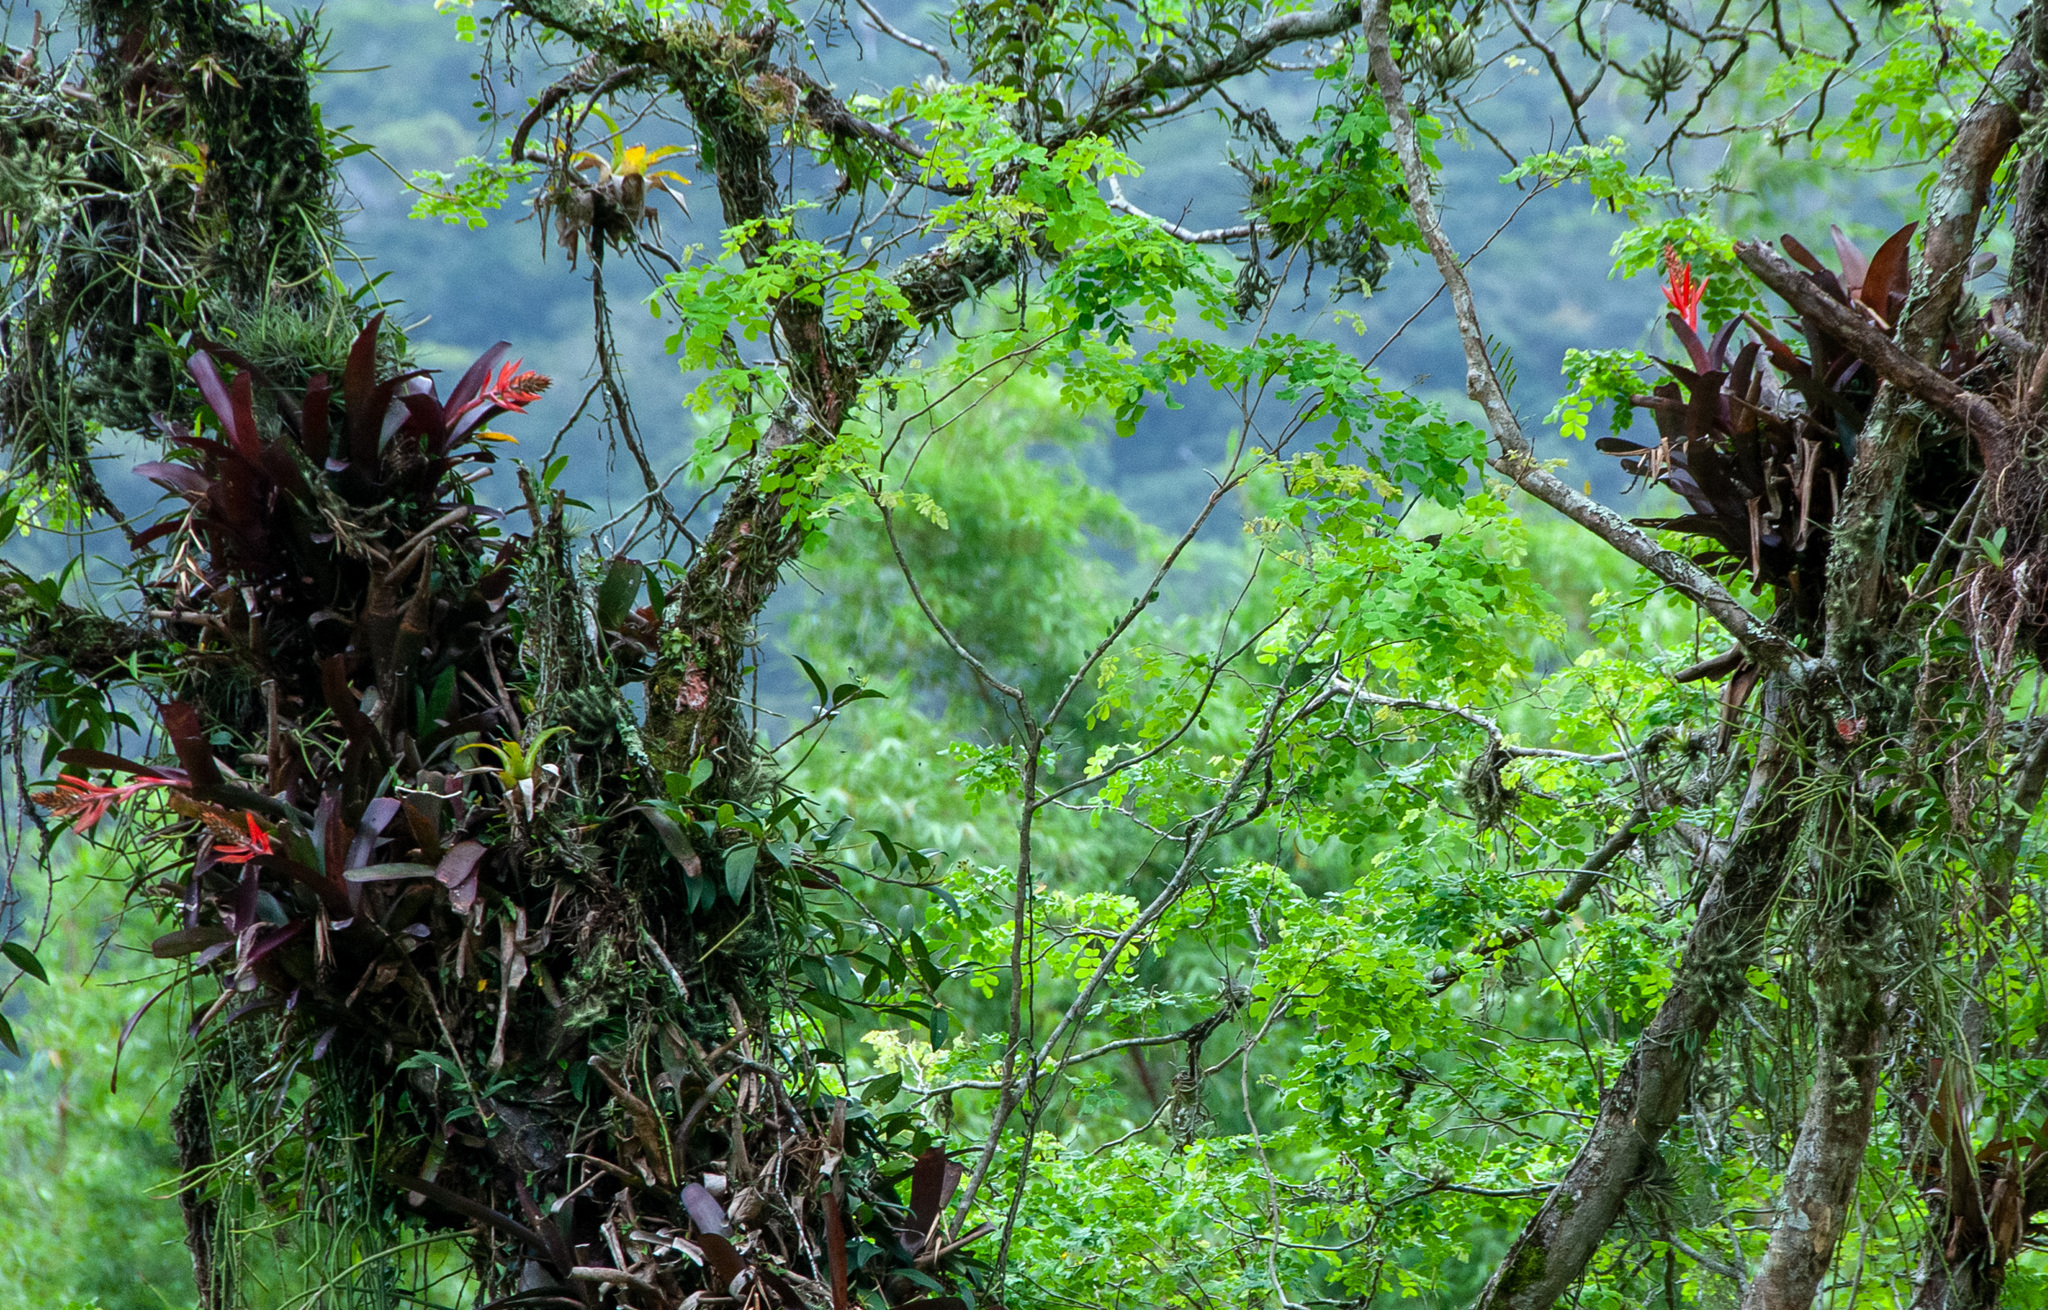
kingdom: Plantae
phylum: Tracheophyta
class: Liliopsida
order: Poales
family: Bromeliaceae
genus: Aechmea
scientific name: Aechmea nudicaulis
